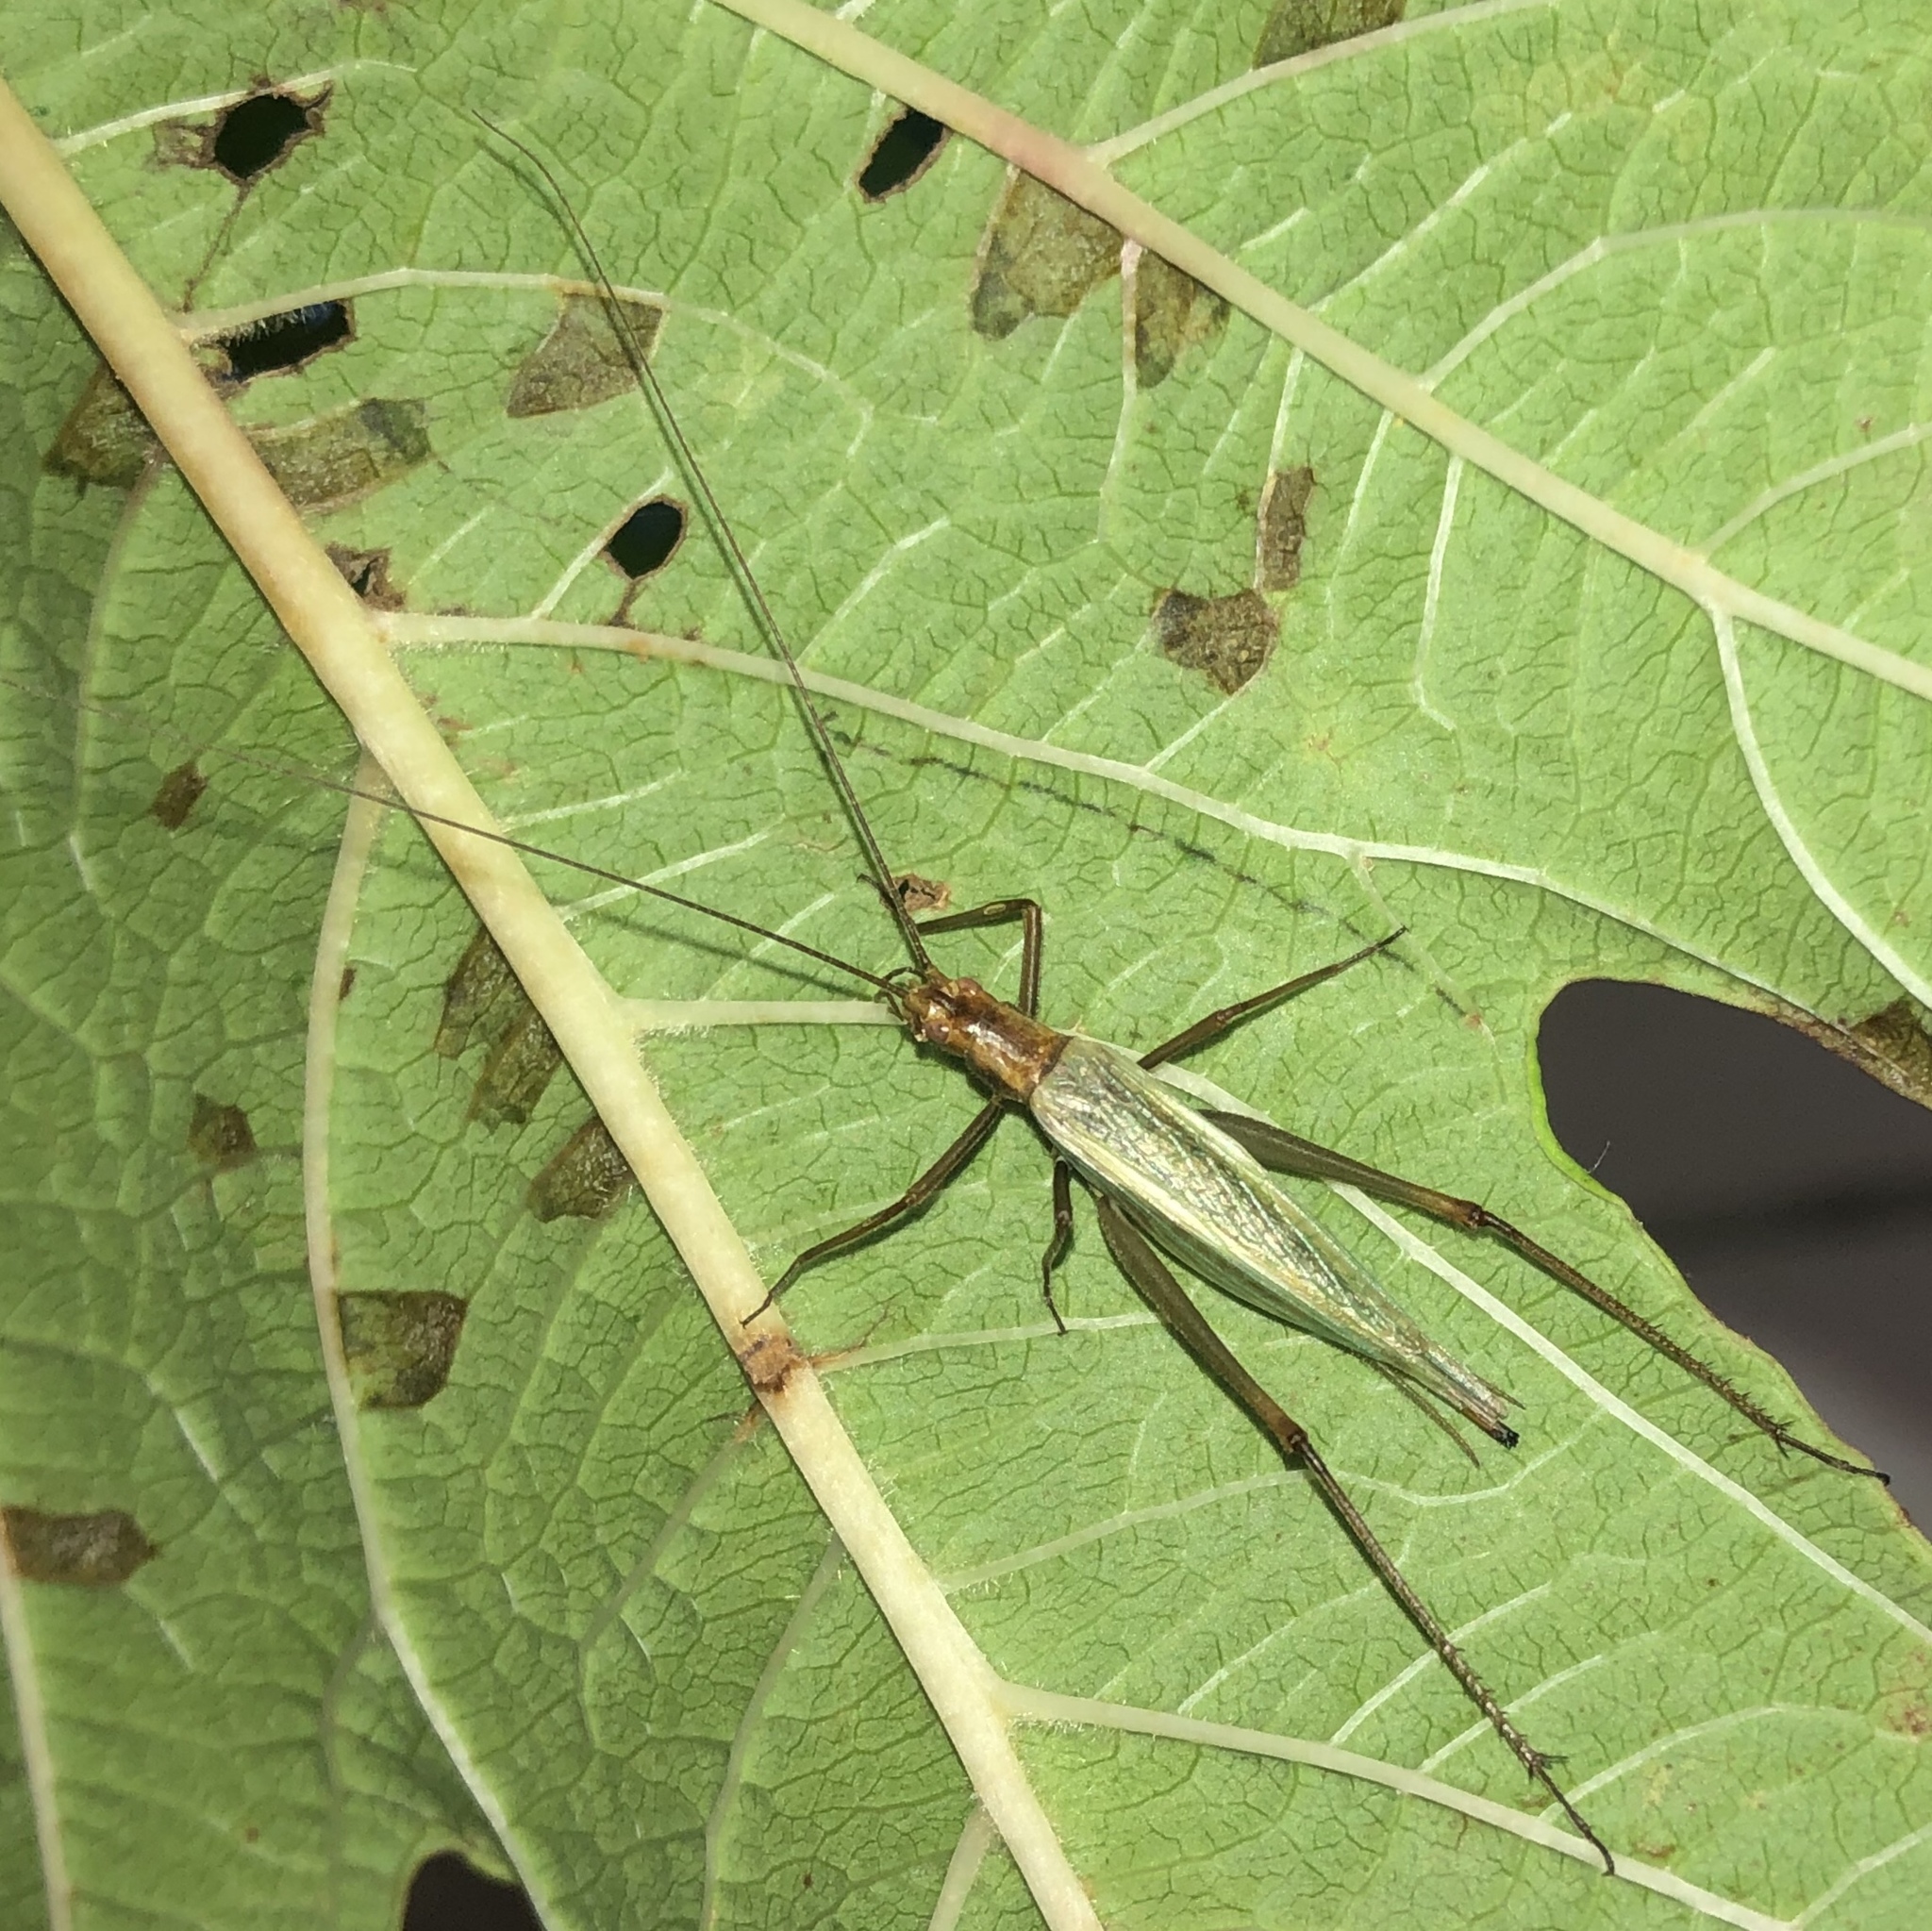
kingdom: Animalia
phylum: Arthropoda
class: Insecta
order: Orthoptera
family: Gryllidae
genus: Oecanthus
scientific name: Oecanthus pini
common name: Pine tree cricket
